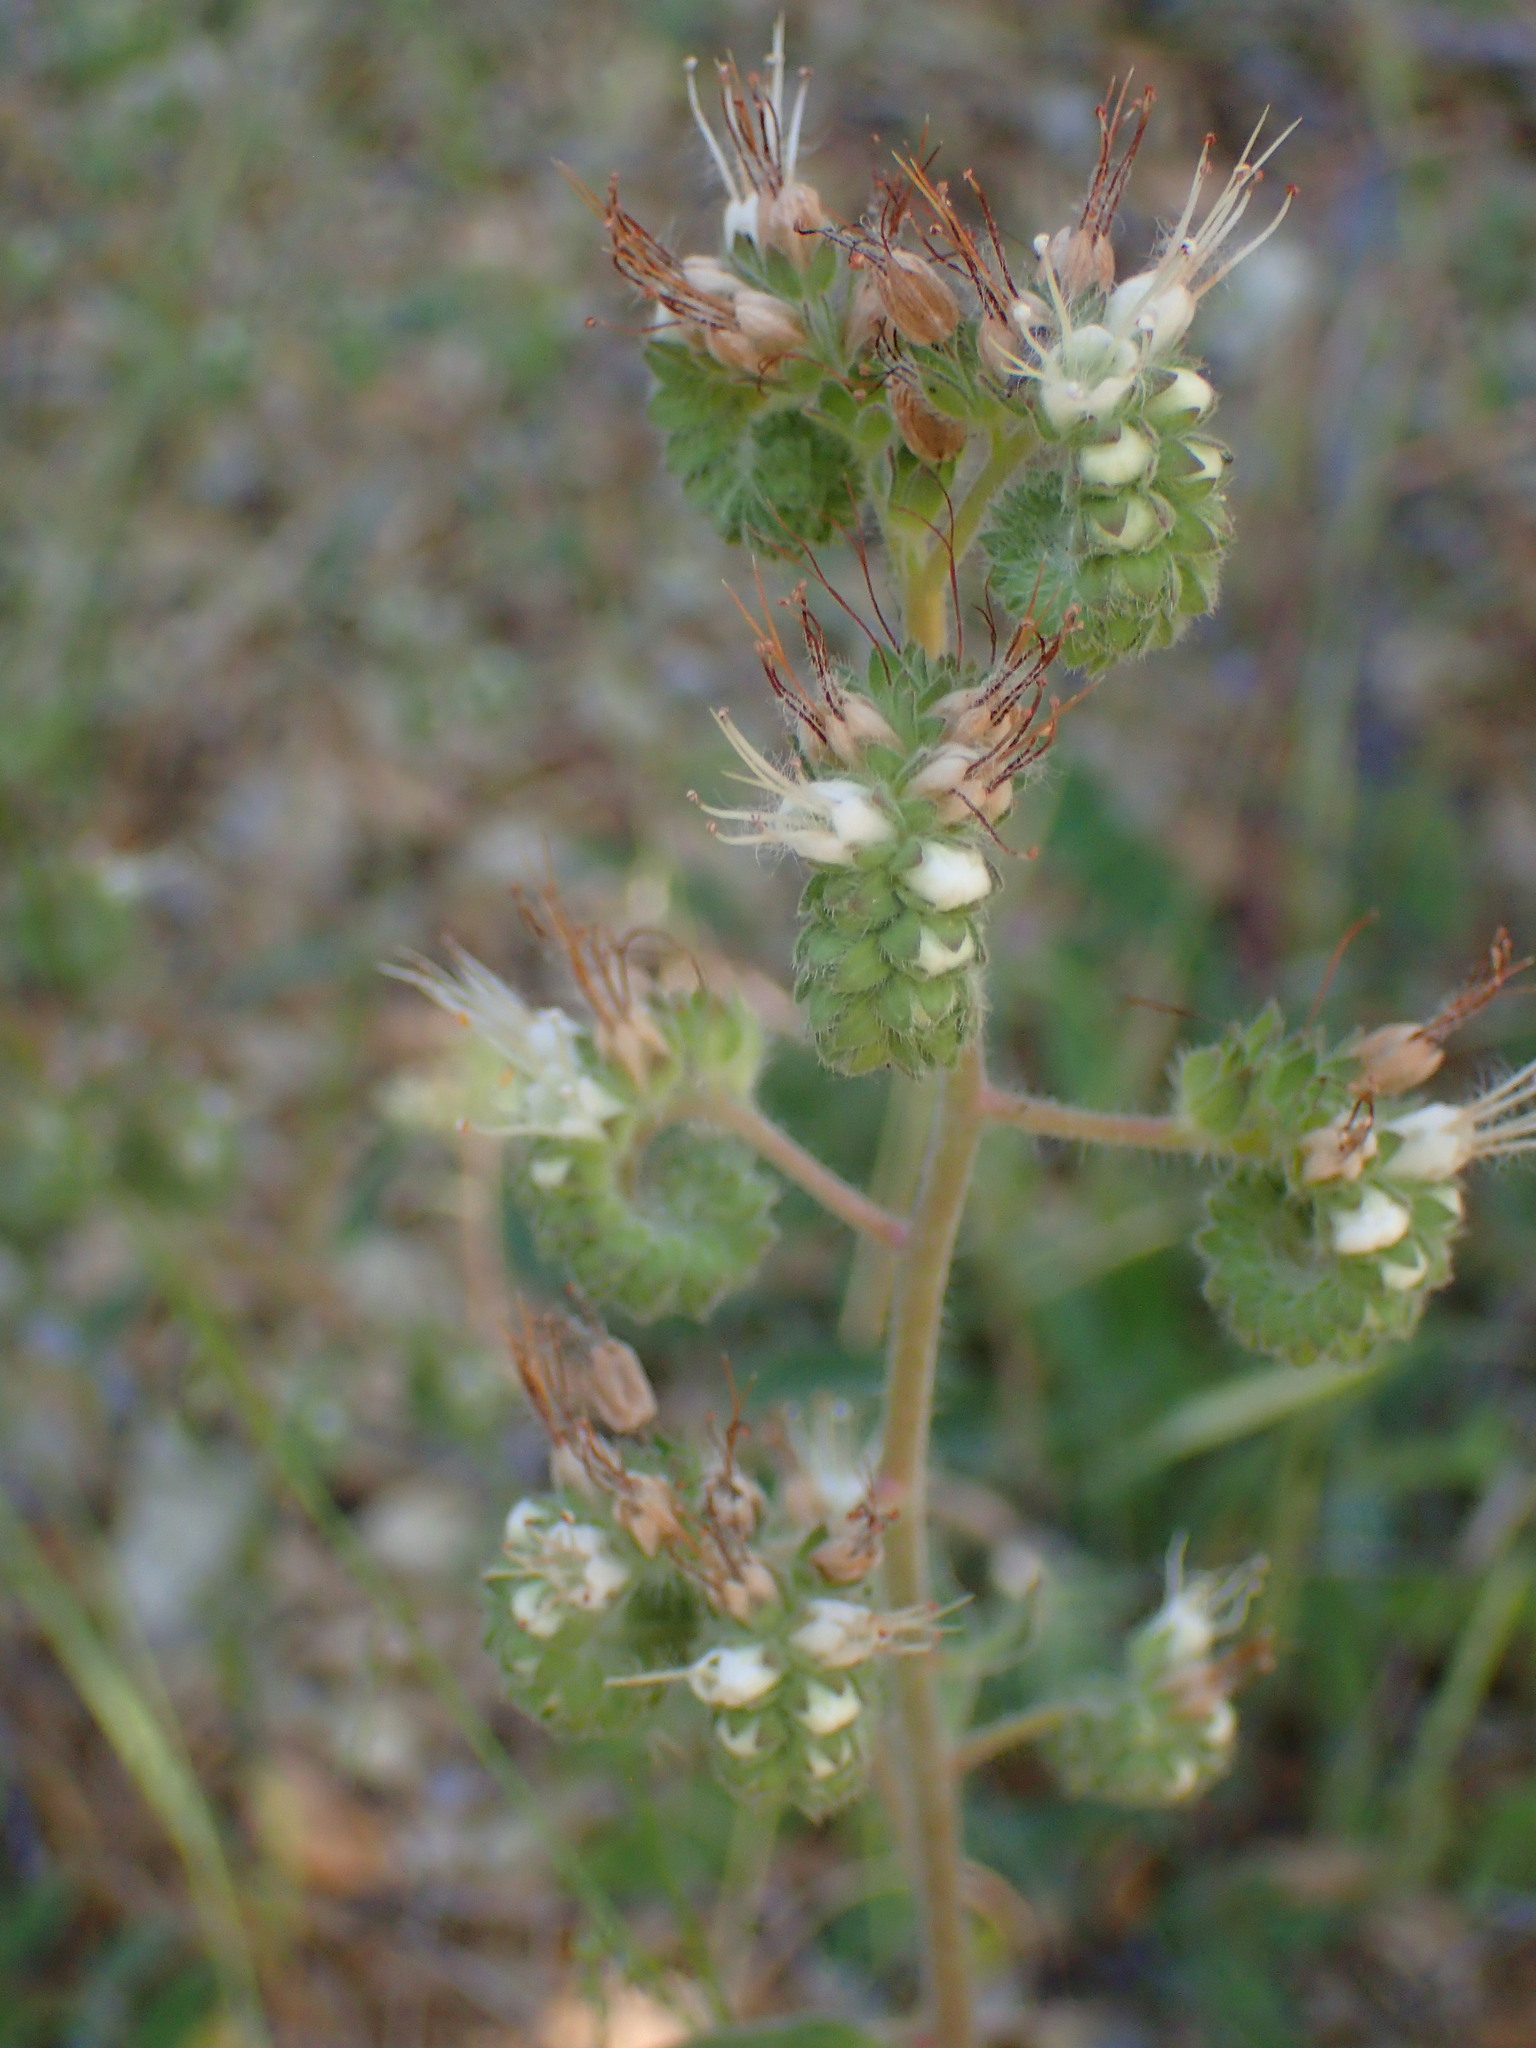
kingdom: Plantae
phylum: Tracheophyta
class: Magnoliopsida
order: Boraginales
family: Hydrophyllaceae
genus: Phacelia
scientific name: Phacelia imbricata
